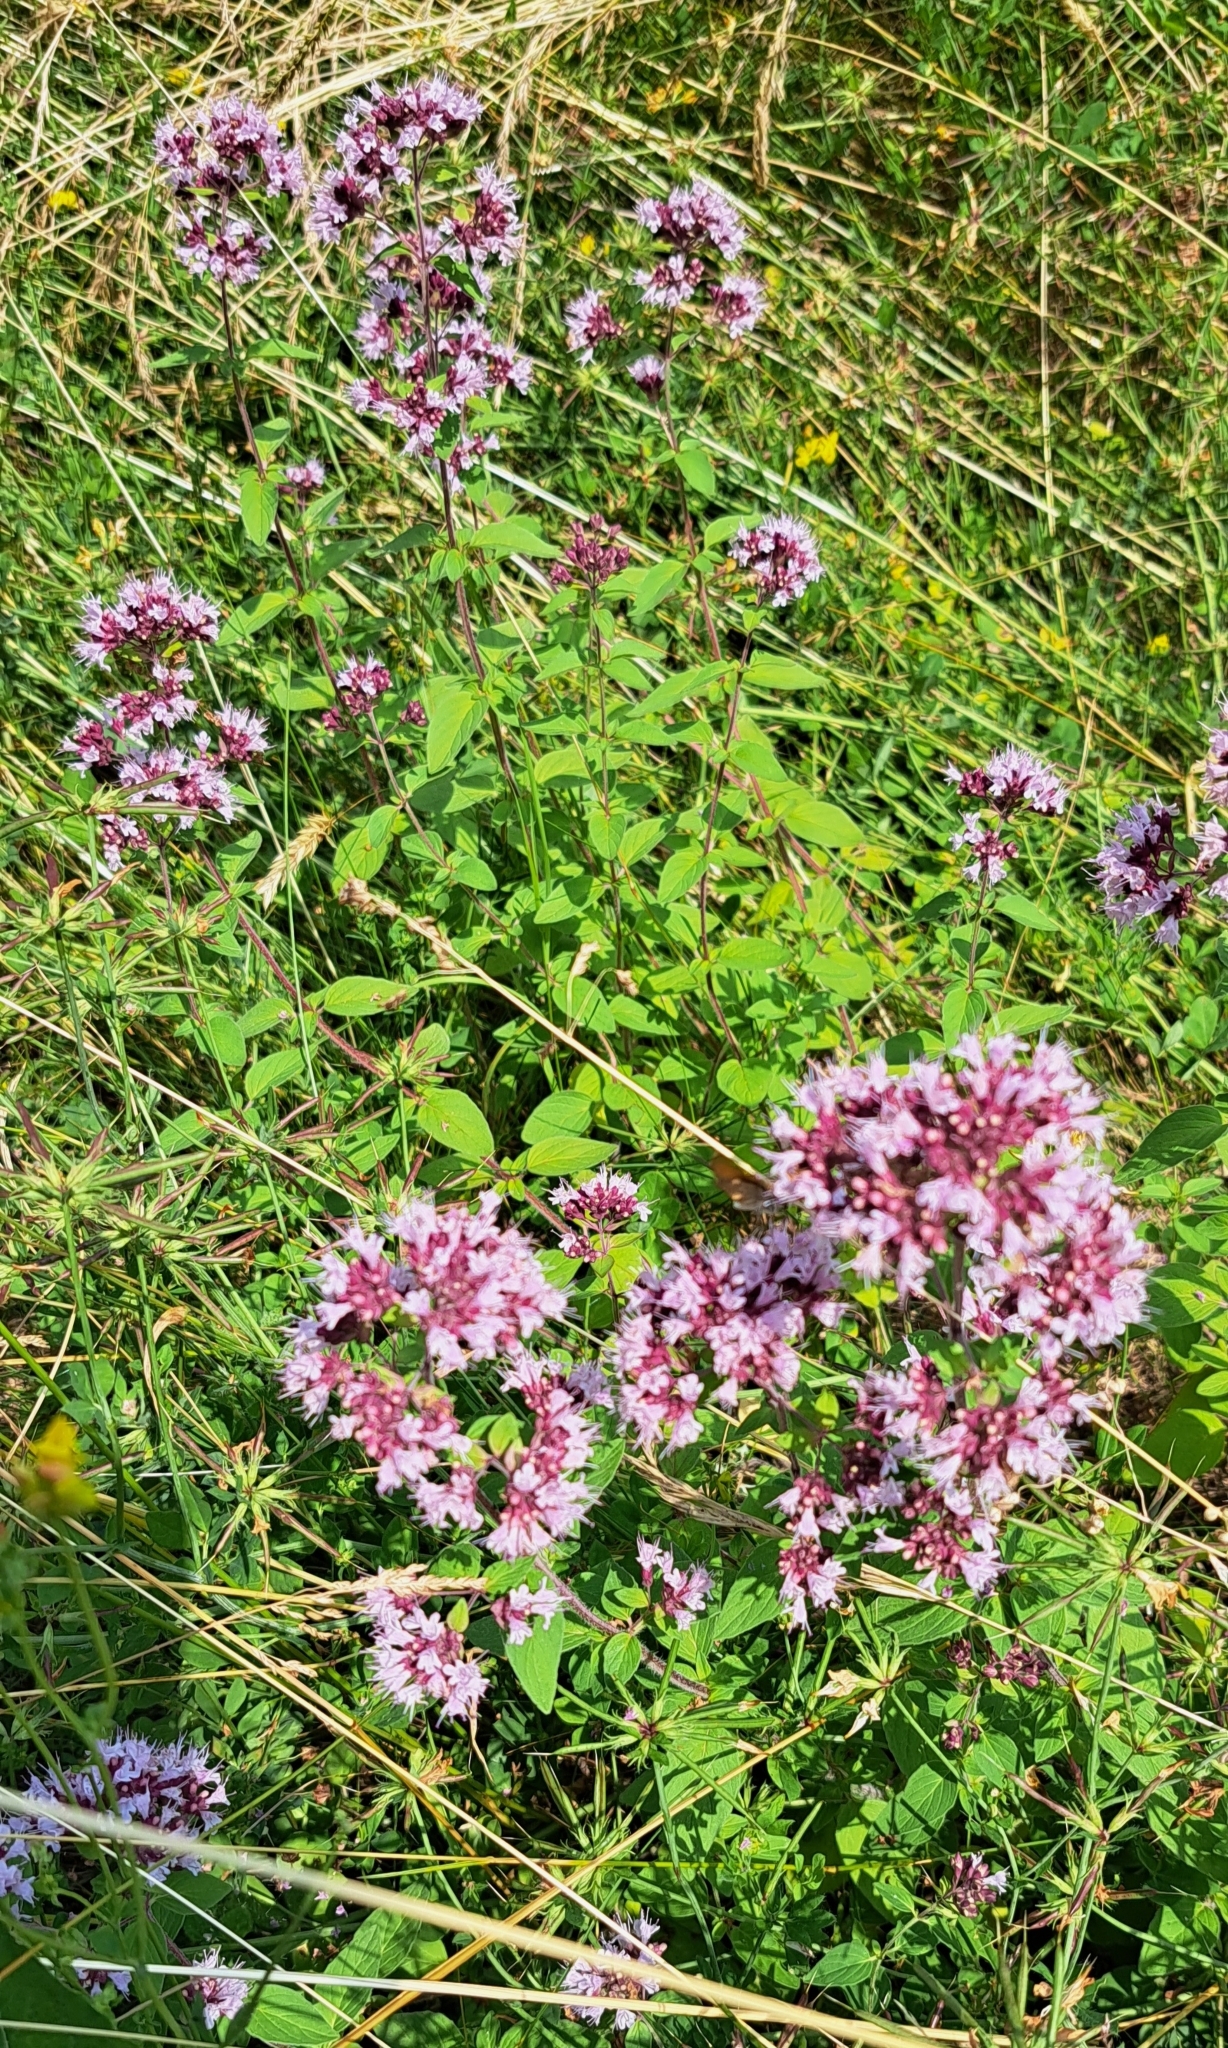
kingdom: Plantae
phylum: Tracheophyta
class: Magnoliopsida
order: Lamiales
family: Lamiaceae
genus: Origanum
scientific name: Origanum vulgare
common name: Wild marjoram
